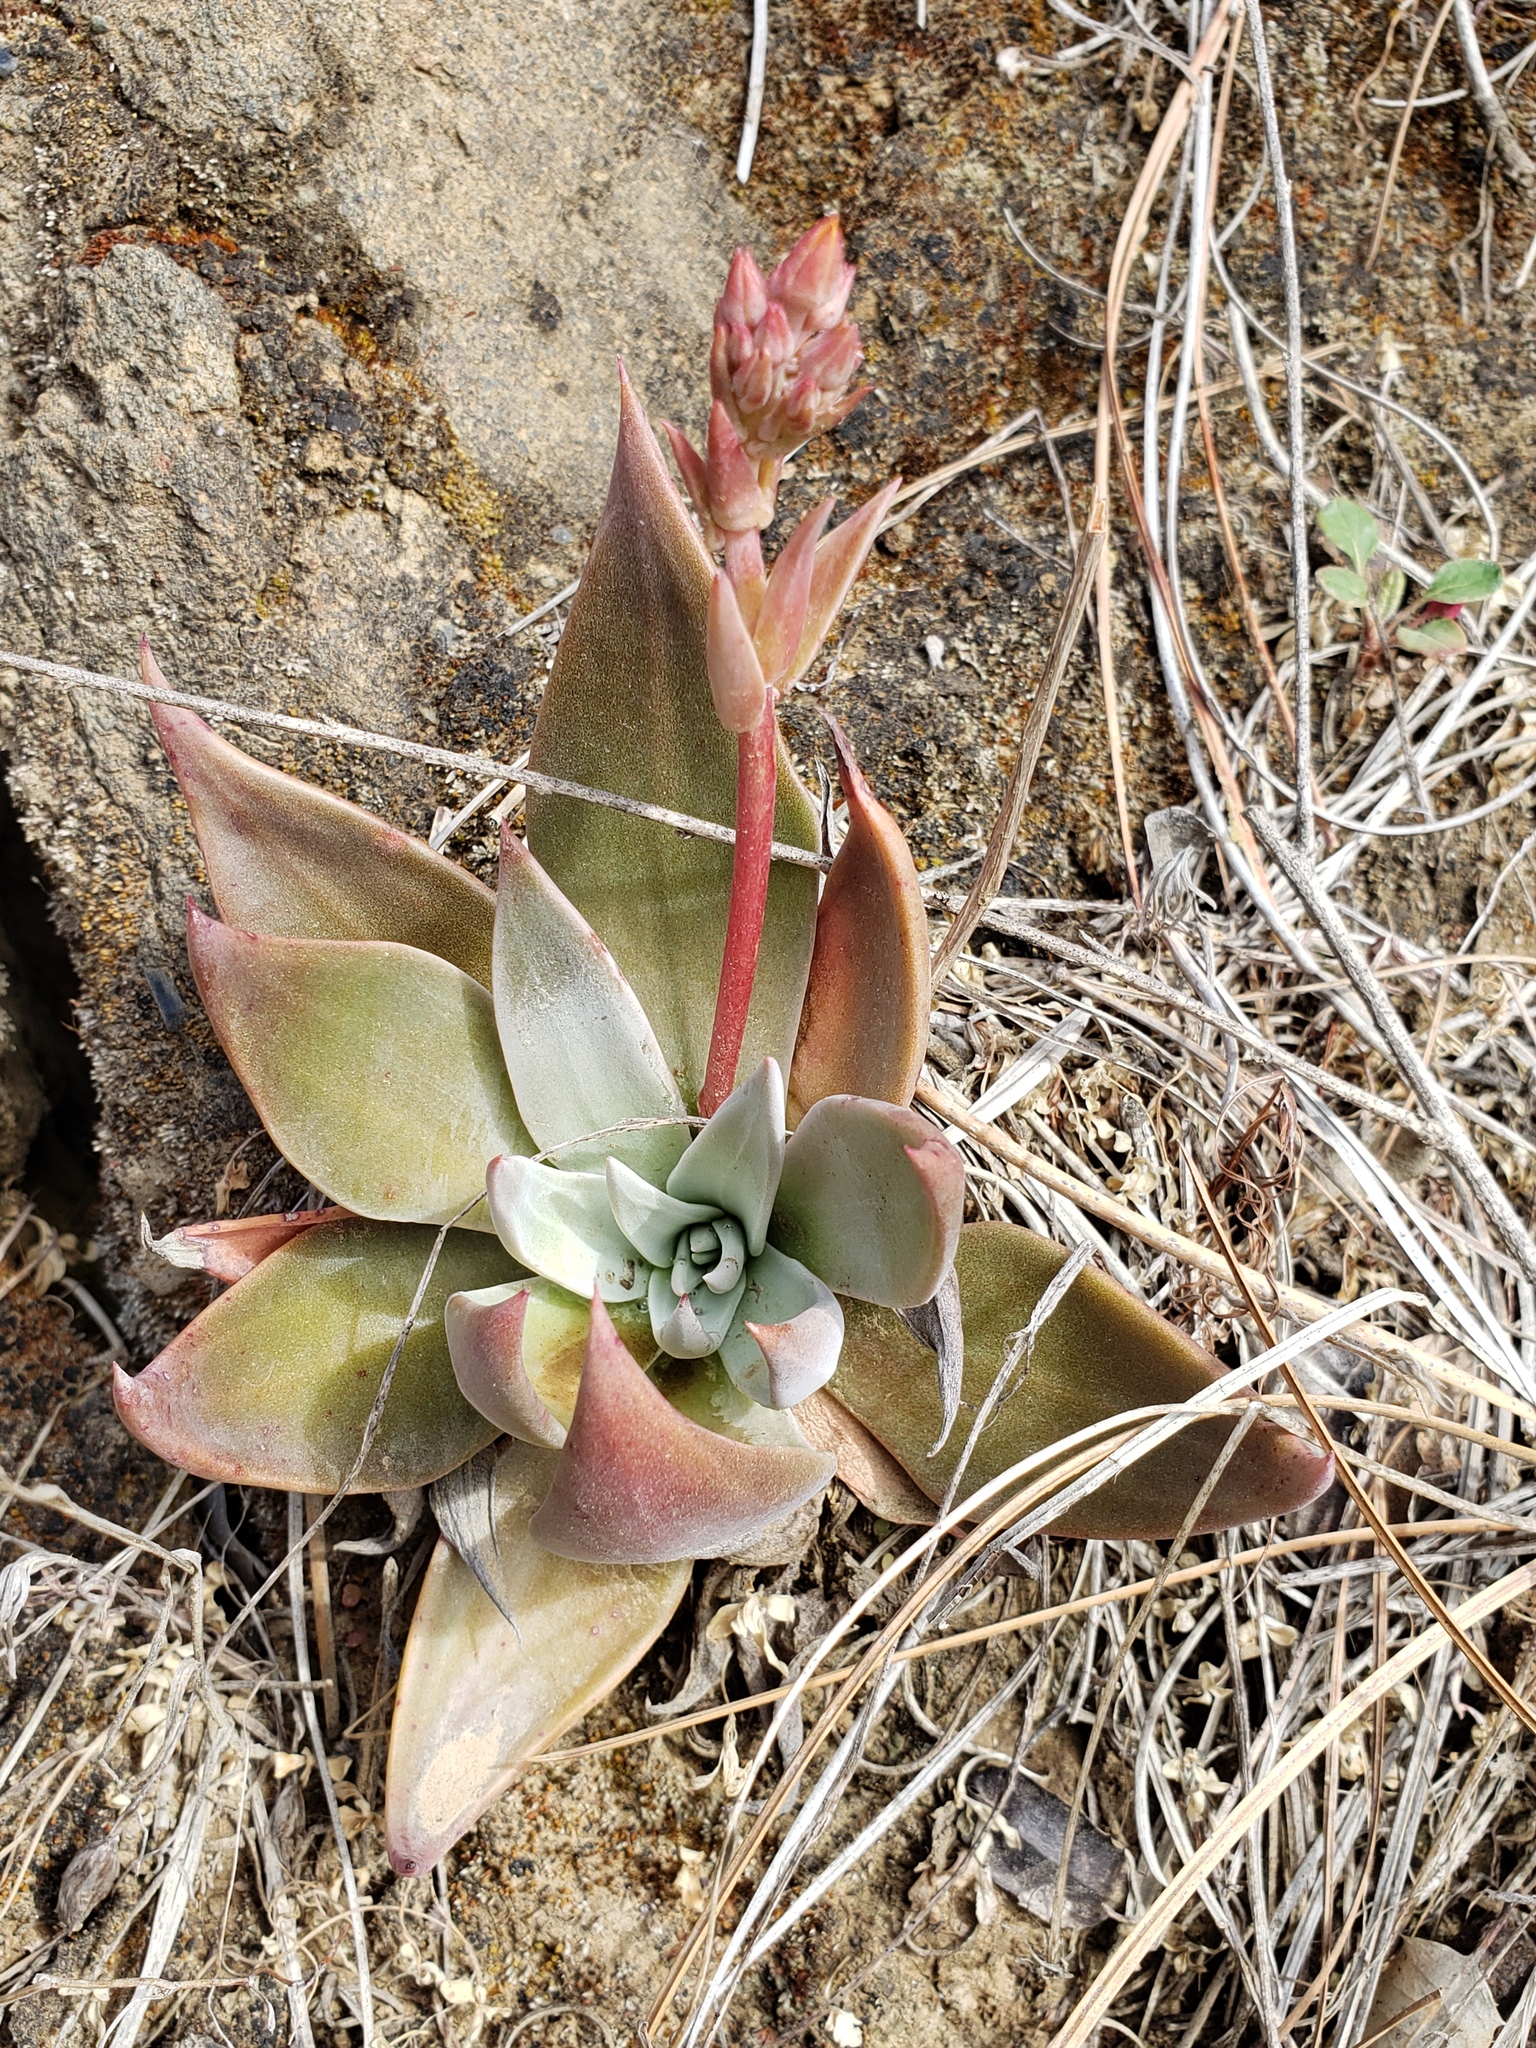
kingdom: Plantae
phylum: Tracheophyta
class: Magnoliopsida
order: Saxifragales
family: Crassulaceae
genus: Dudleya
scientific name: Dudleya cymosa
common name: Canyon dudleya
